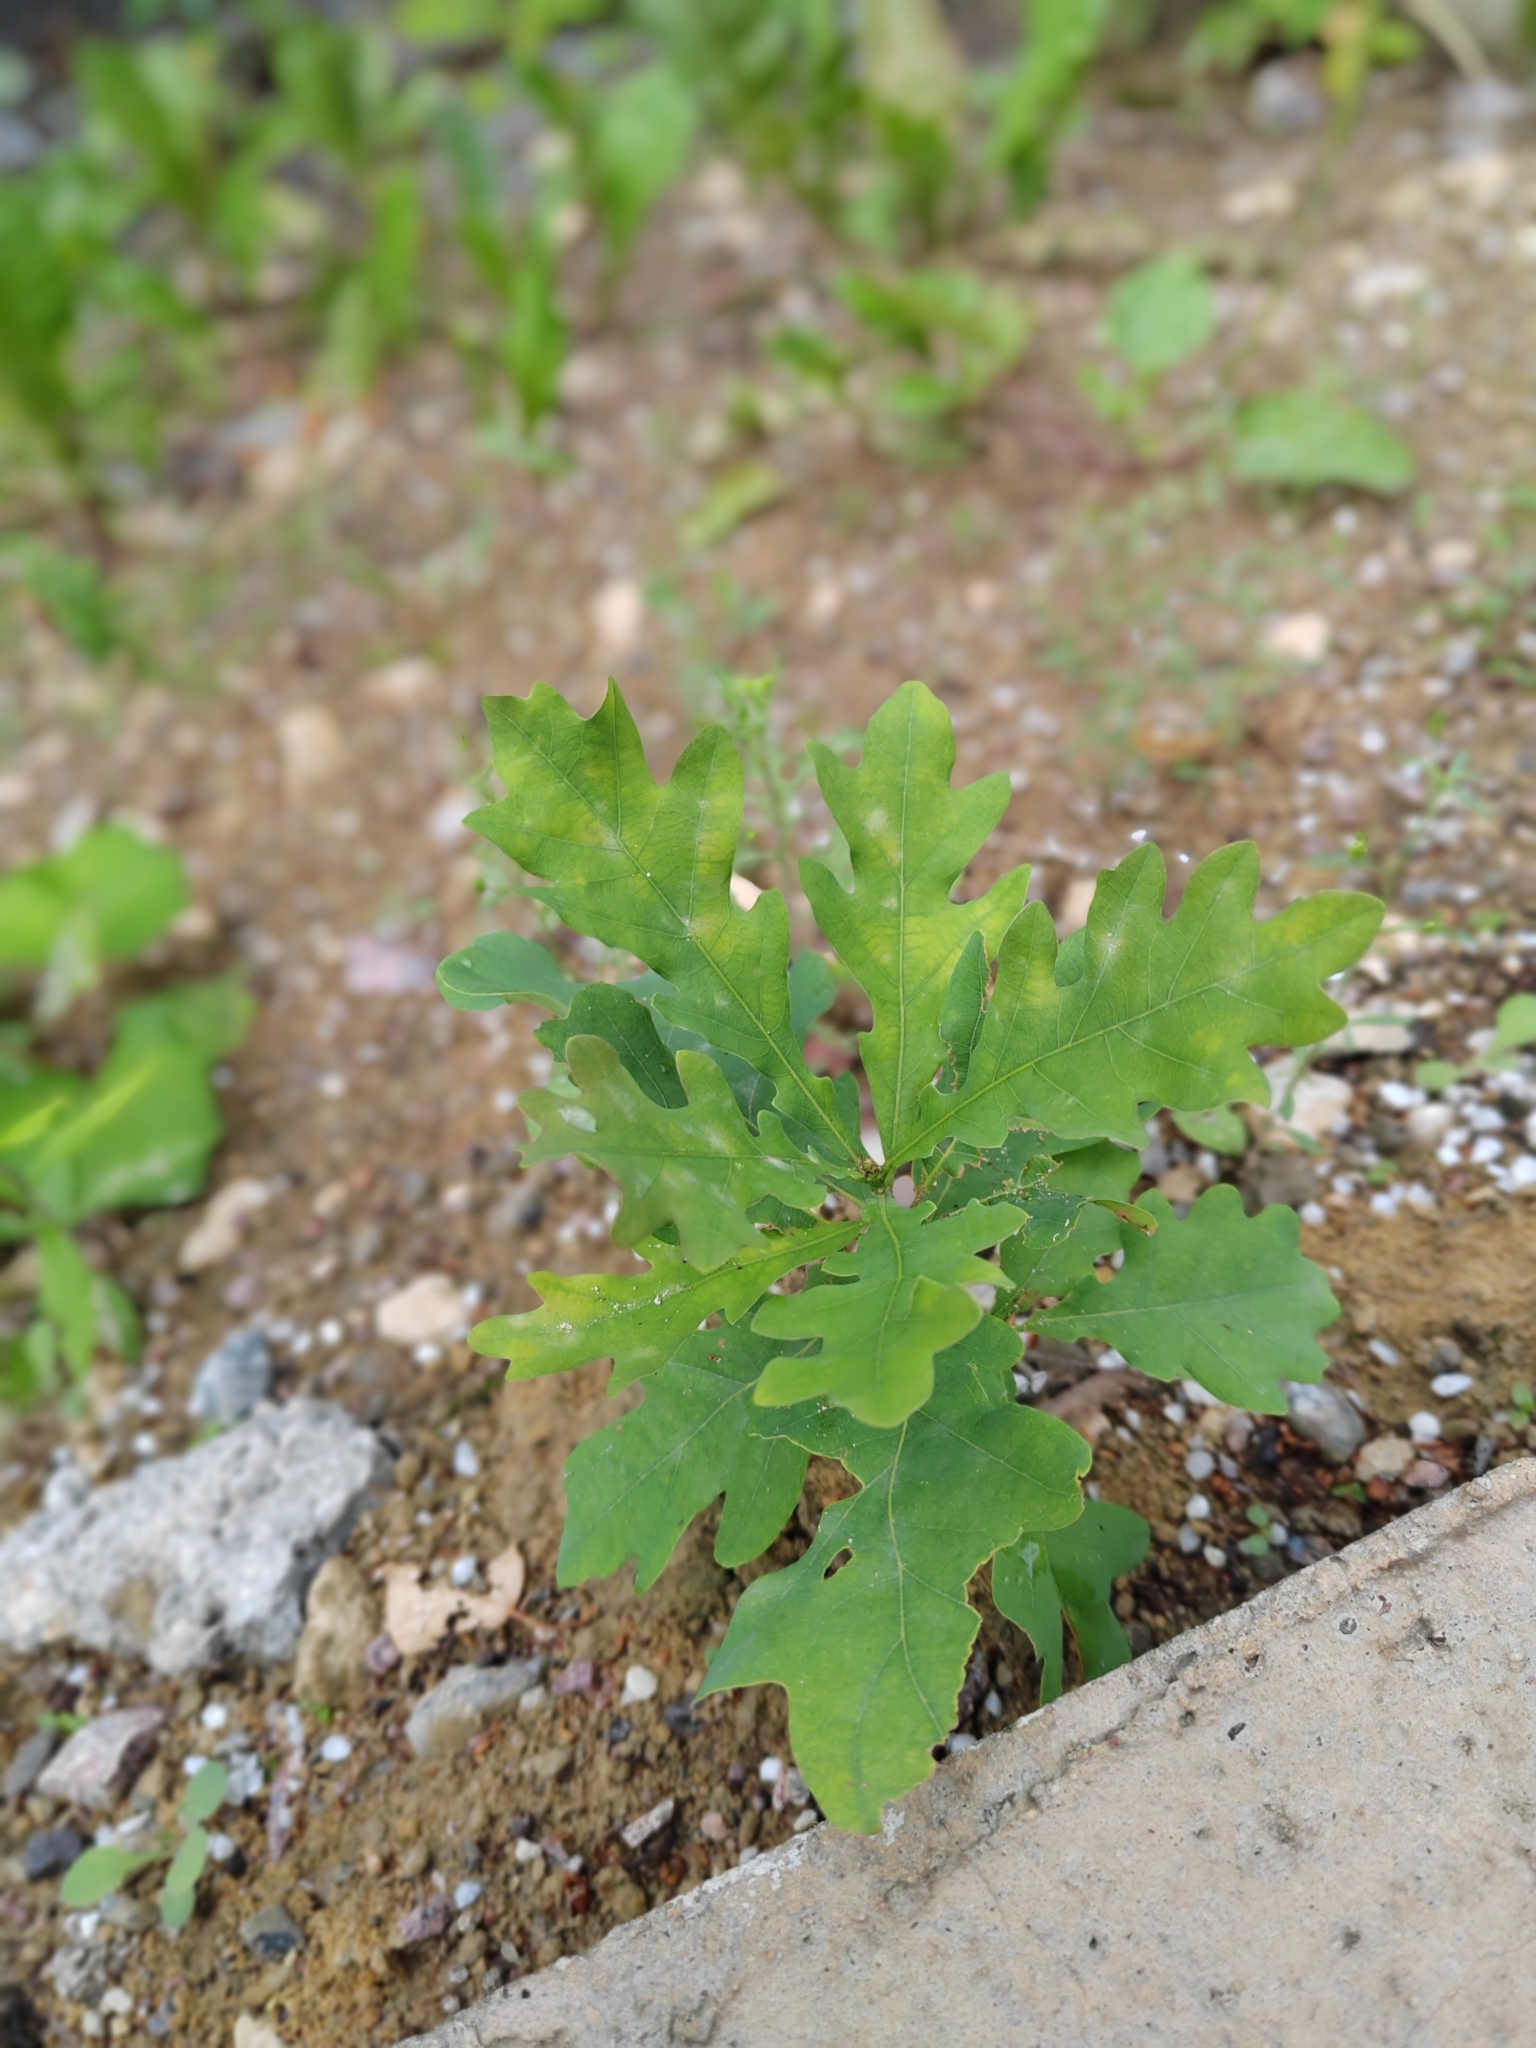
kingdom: Plantae
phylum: Tracheophyta
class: Magnoliopsida
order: Fagales
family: Fagaceae
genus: Quercus
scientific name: Quercus robur
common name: Pedunculate oak
